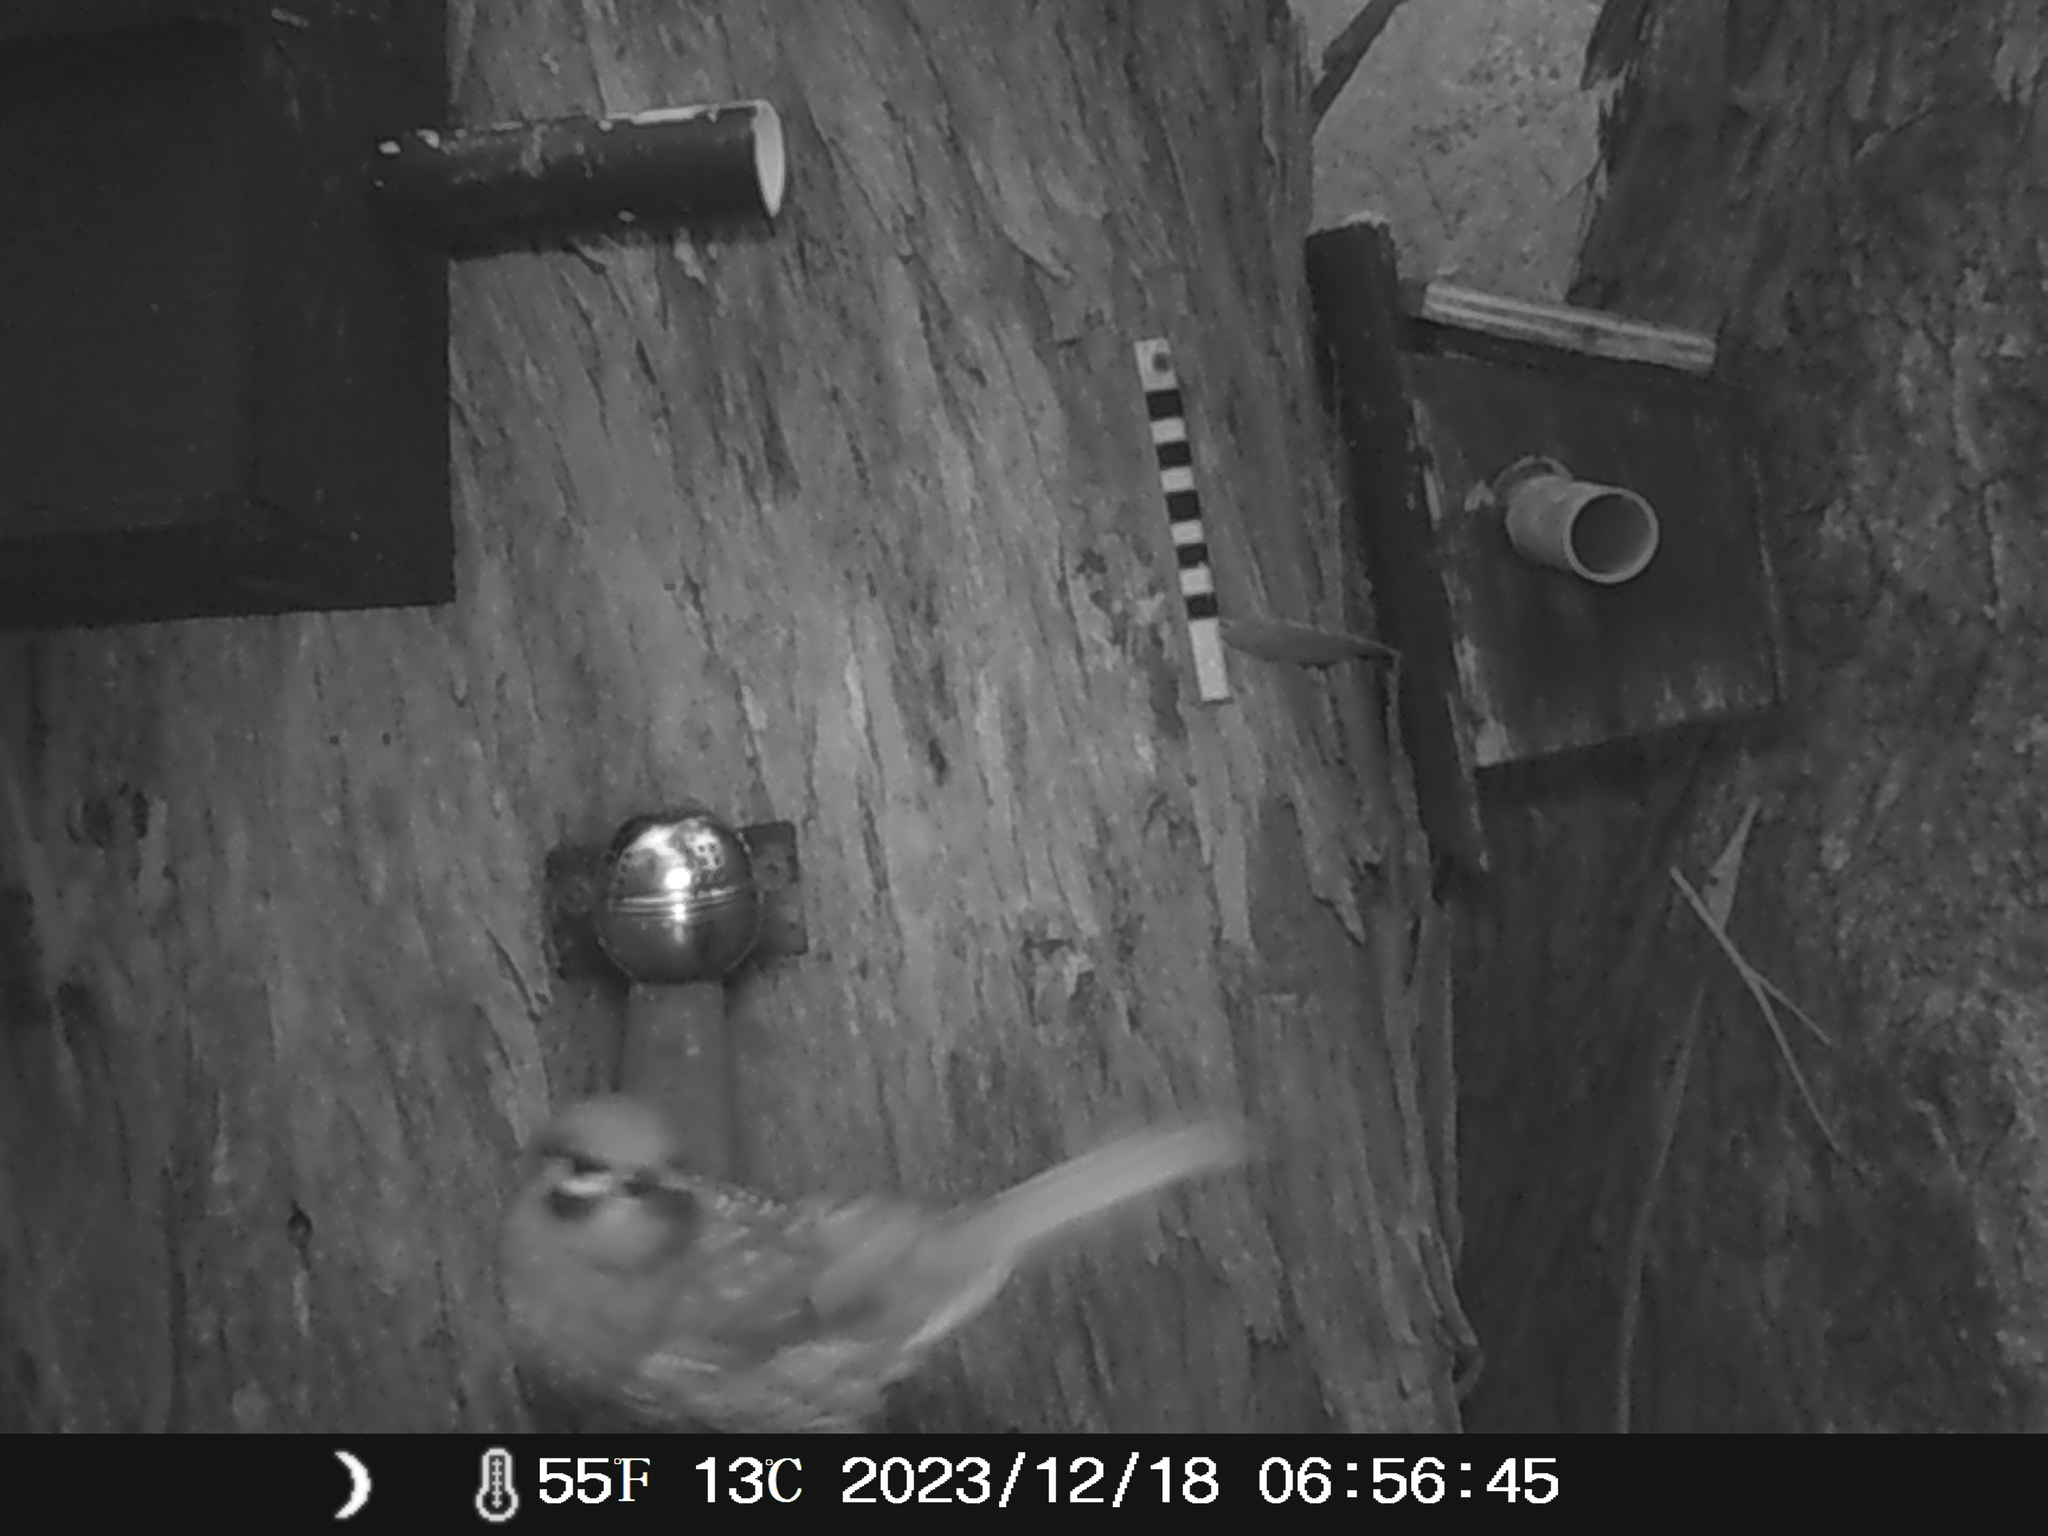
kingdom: Animalia
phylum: Chordata
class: Aves
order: Passeriformes
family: Meliphagidae
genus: Caligavis
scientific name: Caligavis chrysops
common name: Yellow-faced honeyeater
